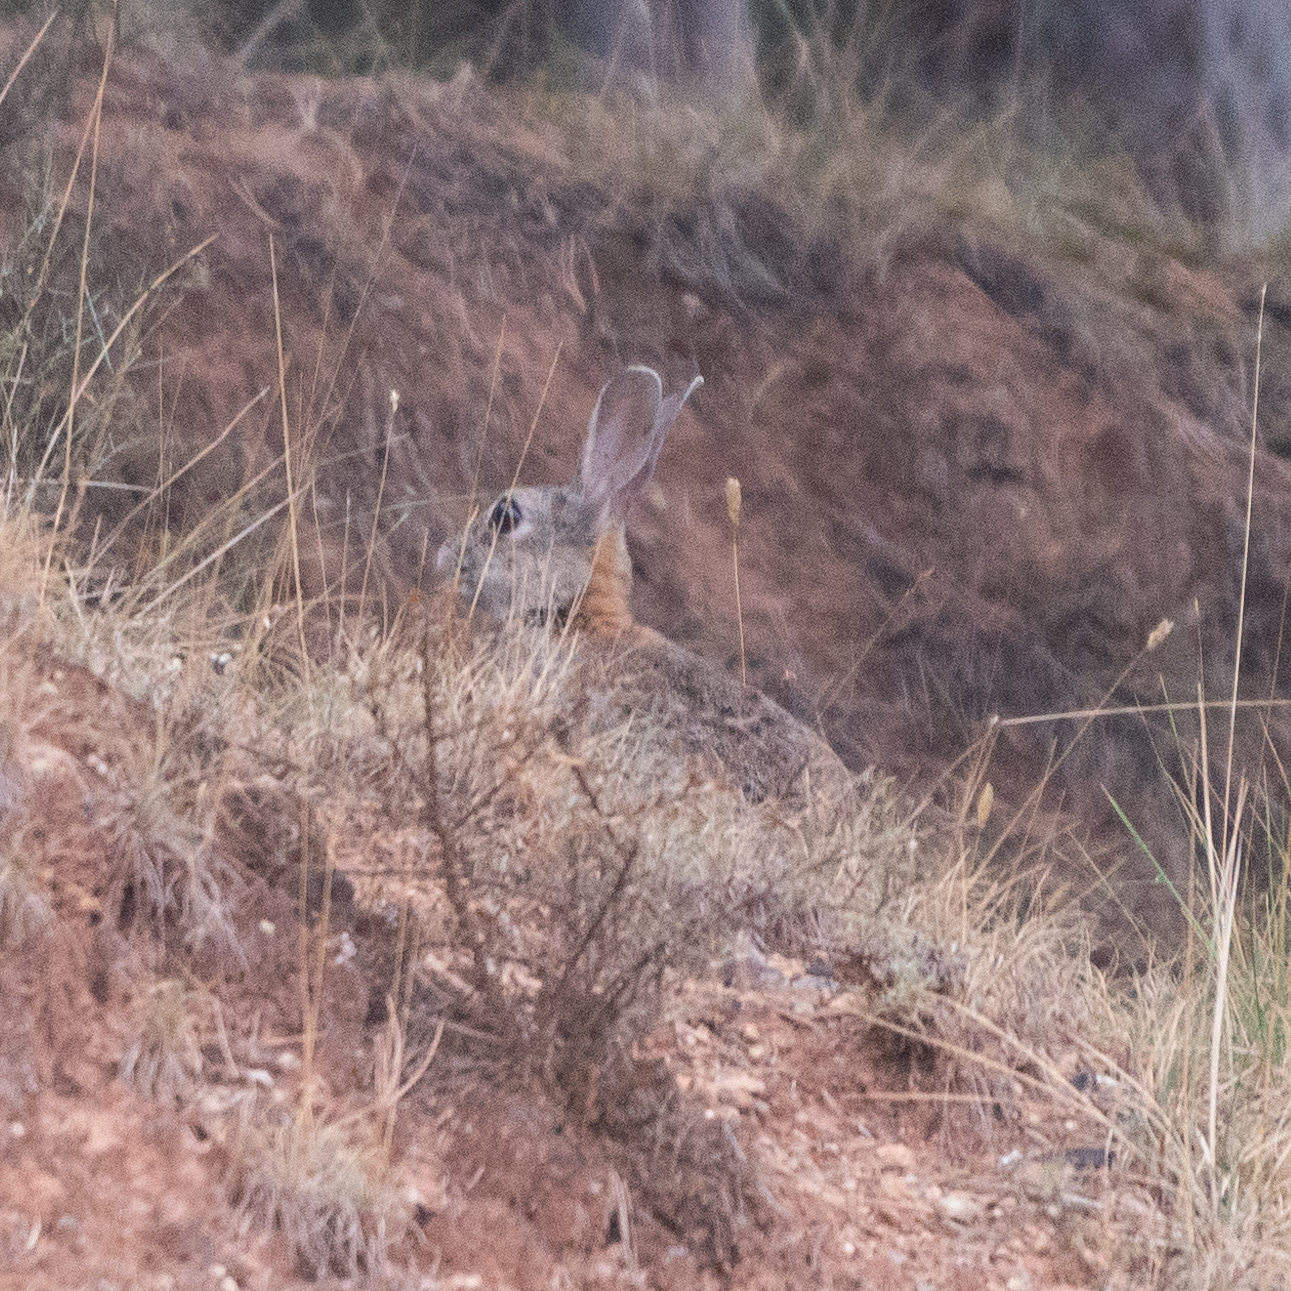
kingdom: Animalia
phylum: Chordata
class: Mammalia
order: Lagomorpha
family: Leporidae
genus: Oryctolagus
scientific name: Oryctolagus cuniculus
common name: European rabbit
